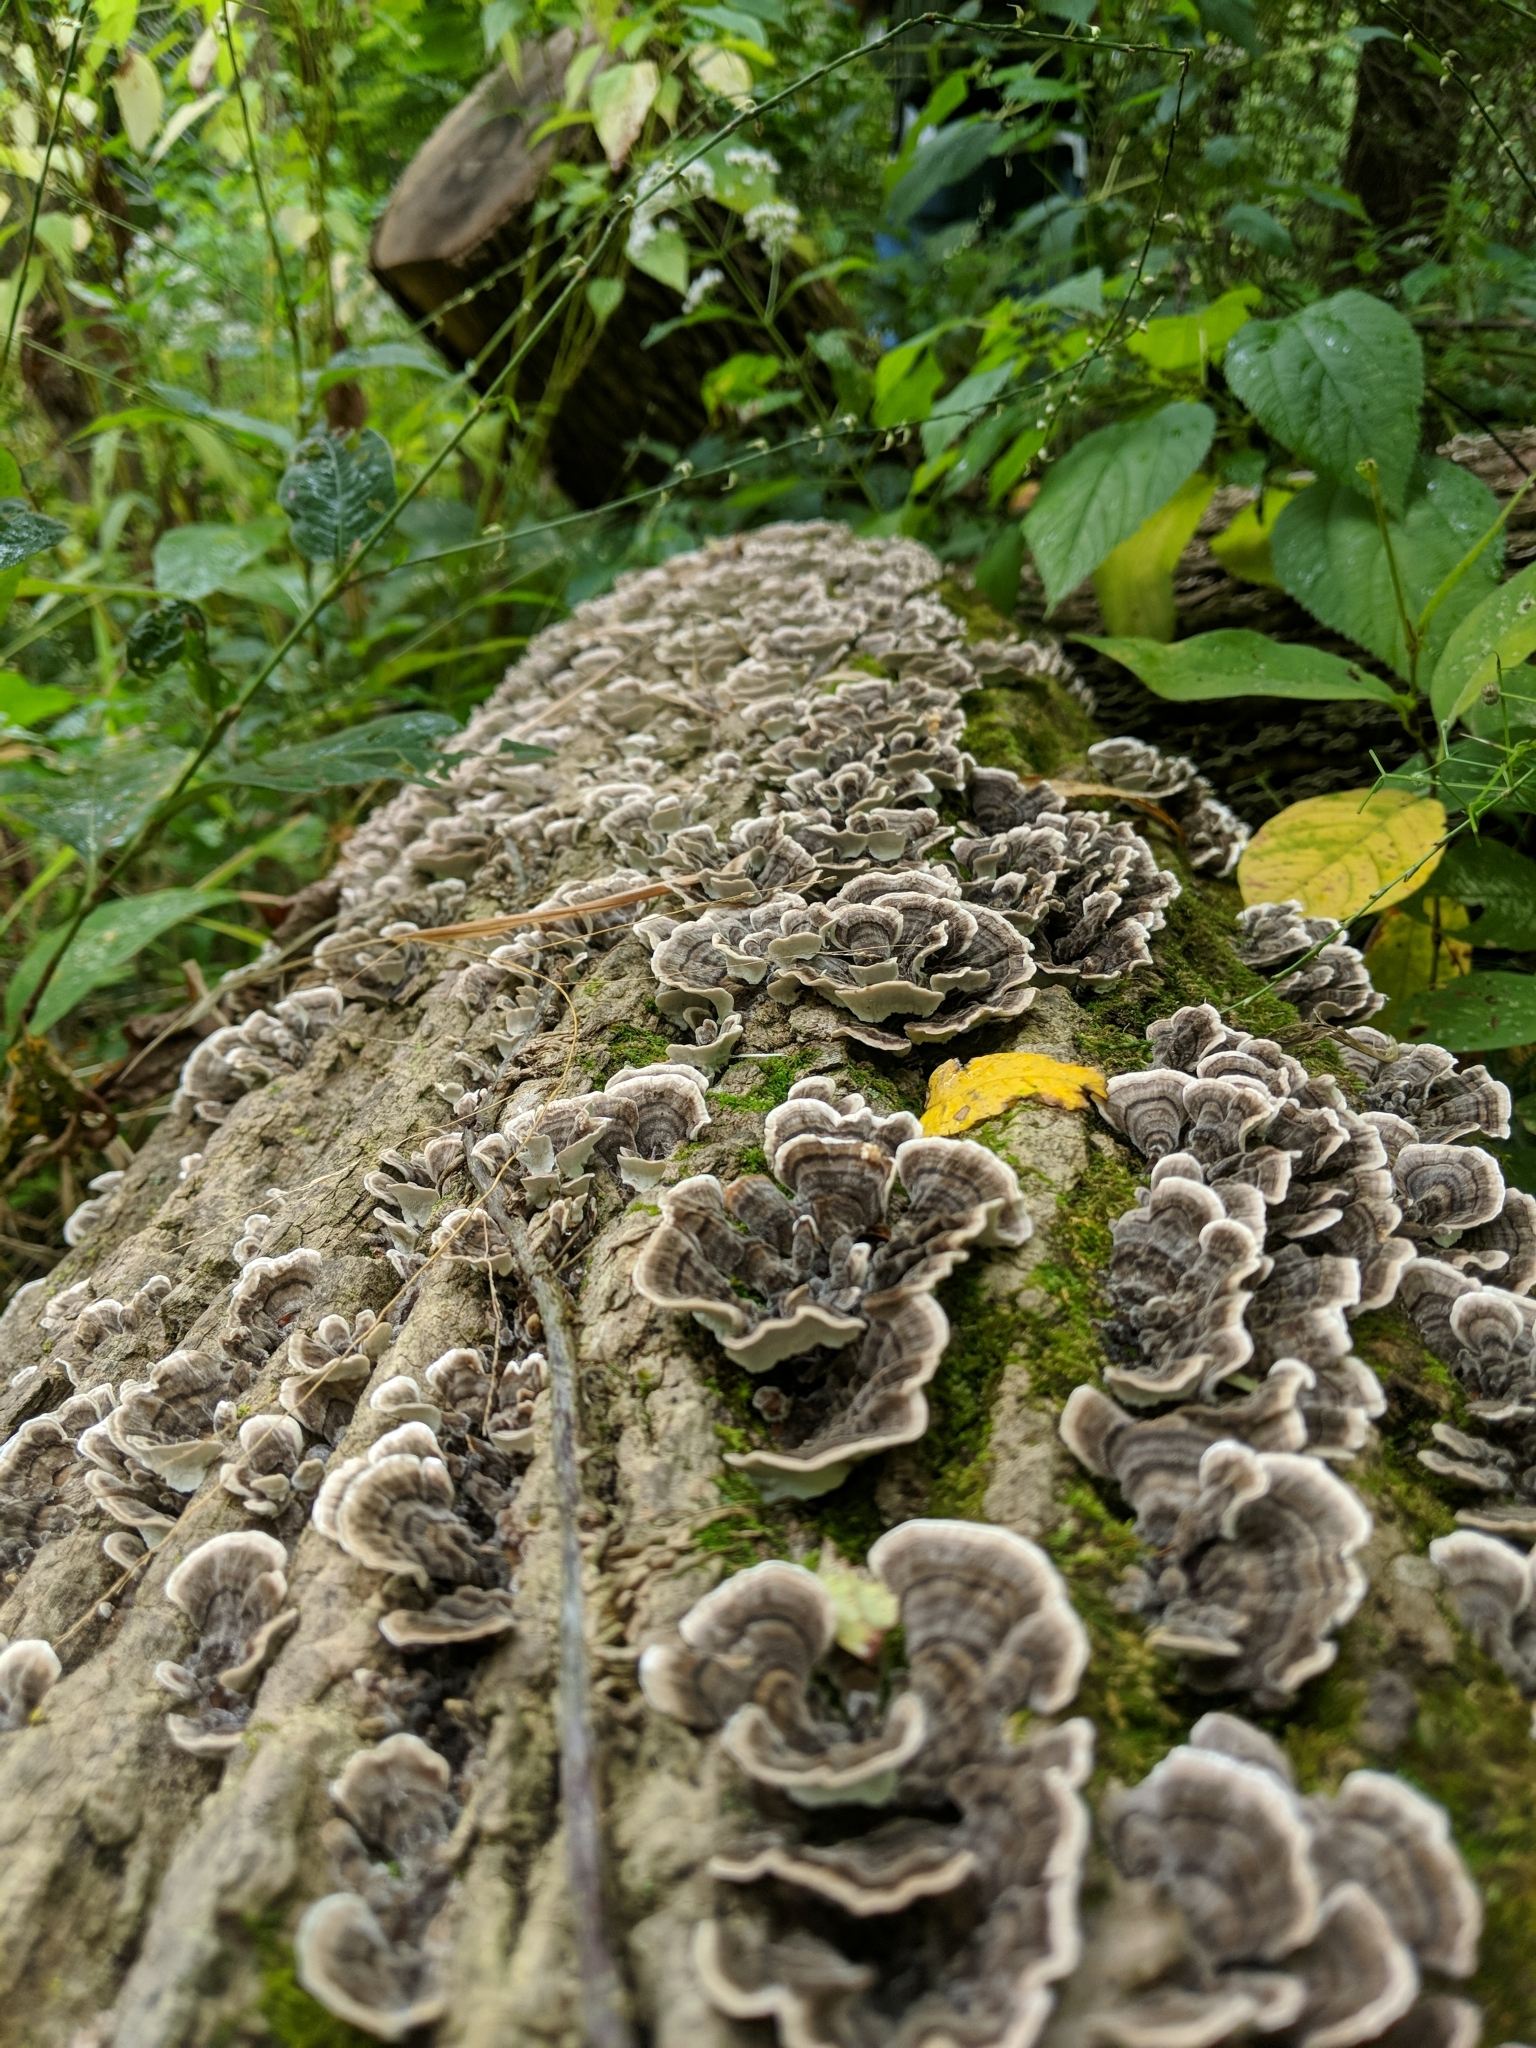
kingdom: Fungi
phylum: Basidiomycota
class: Agaricomycetes
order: Polyporales
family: Polyporaceae
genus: Trametes
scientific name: Trametes versicolor
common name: Turkeytail
